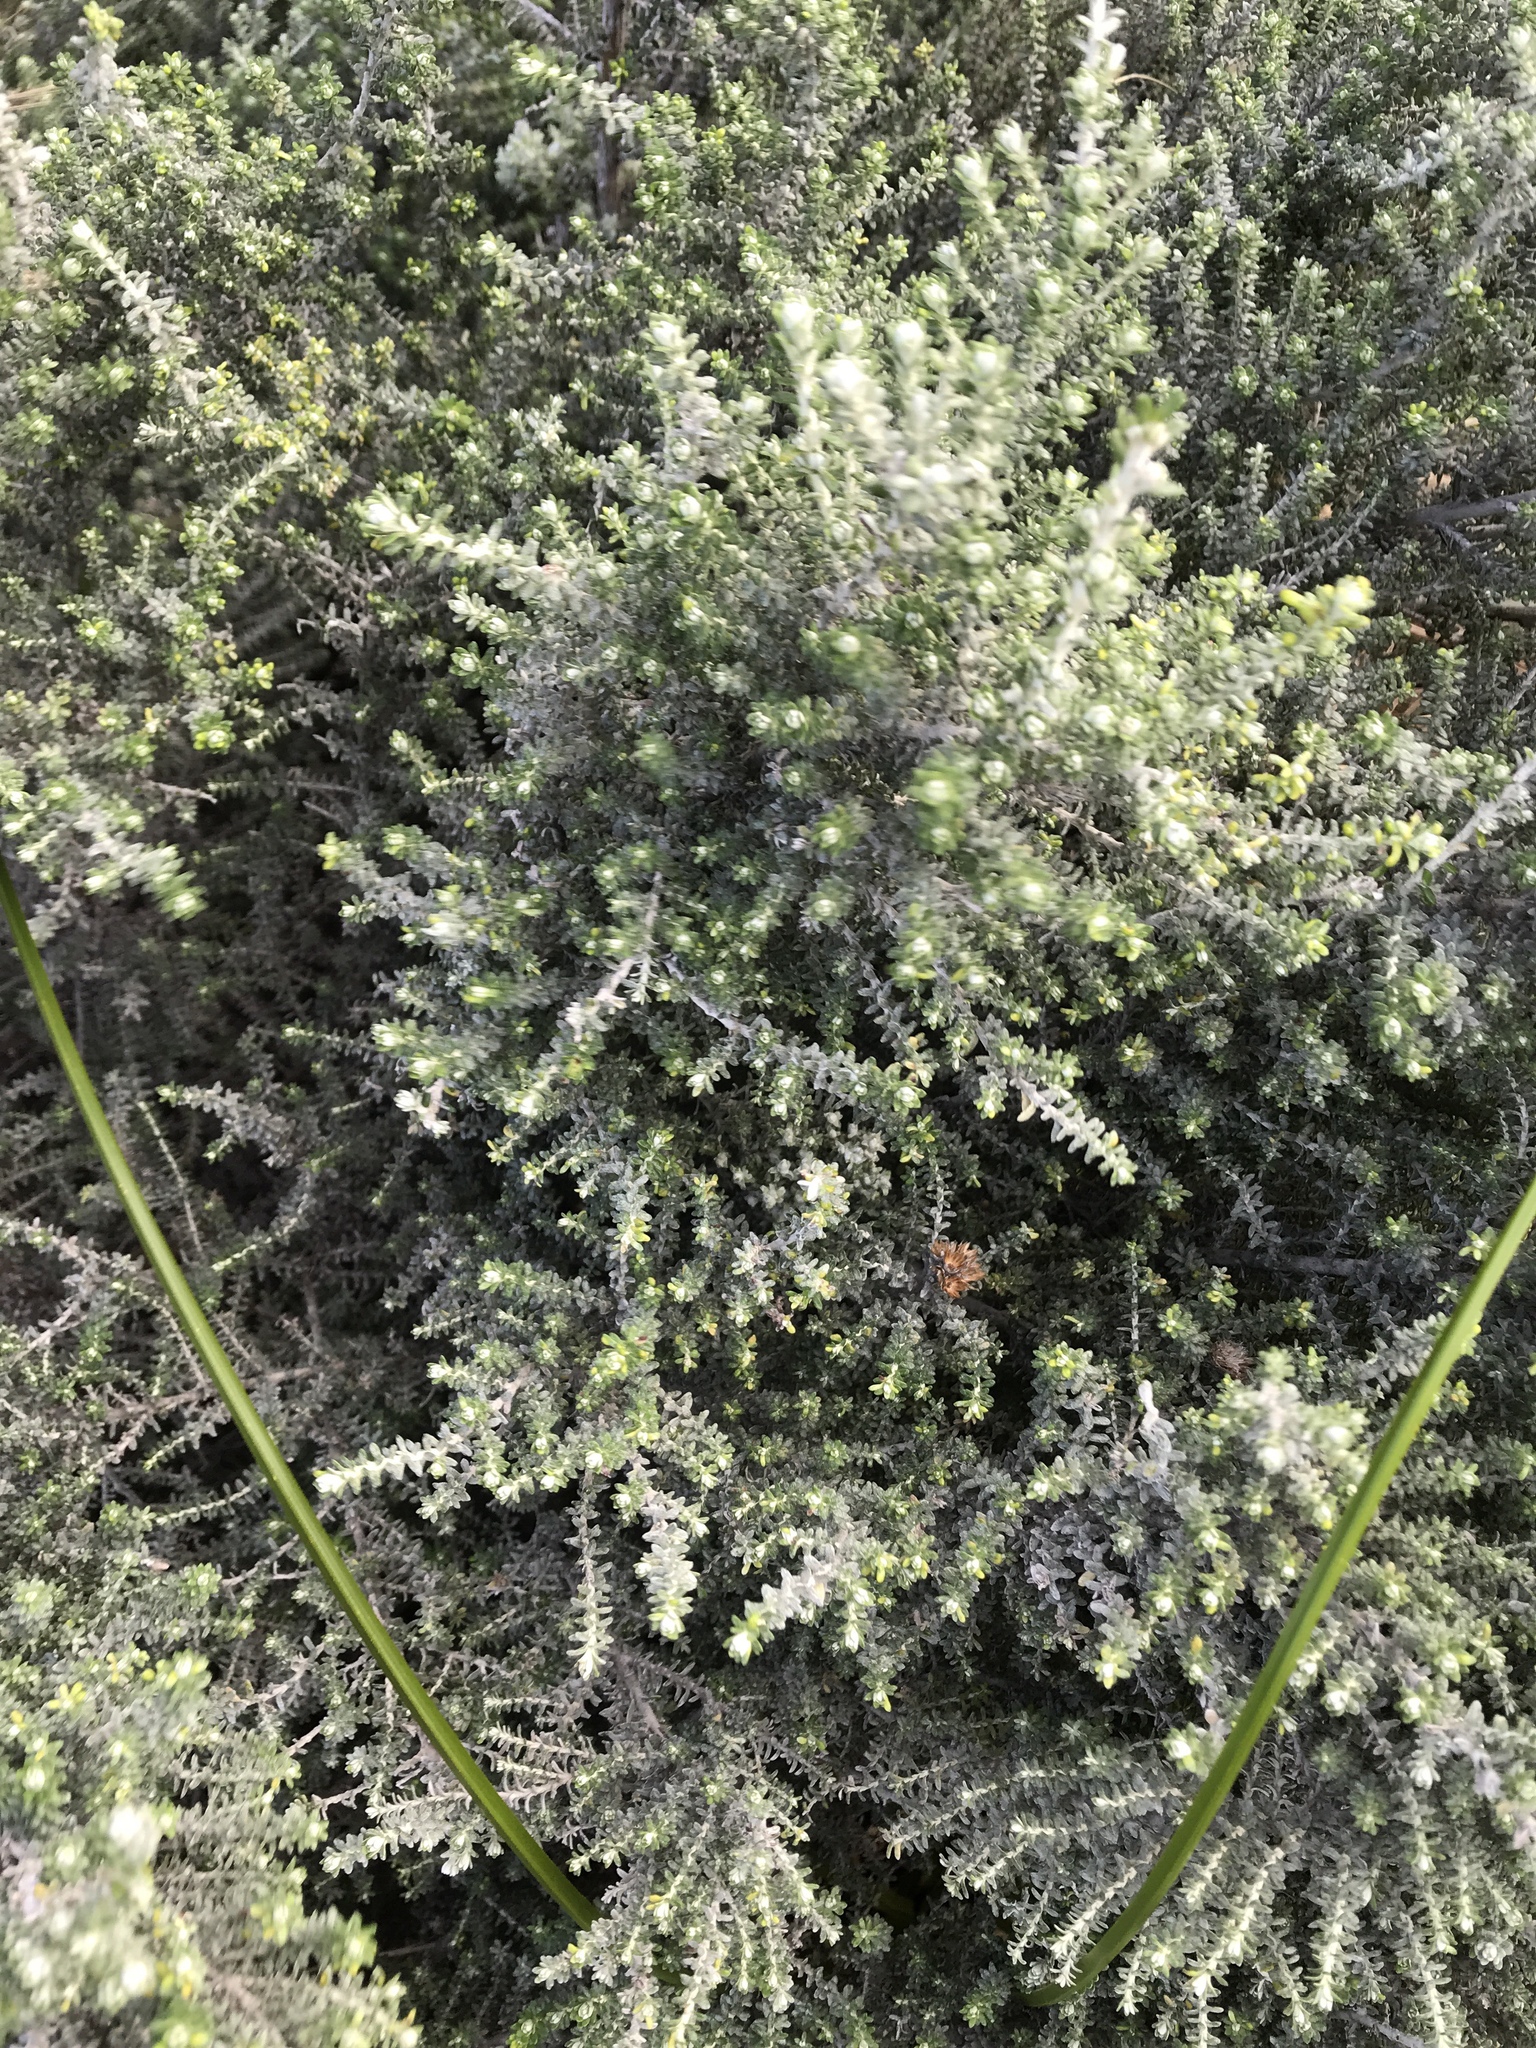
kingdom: Plantae
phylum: Tracheophyta
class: Magnoliopsida
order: Asterales
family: Asteraceae
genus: Ozothamnus
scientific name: Ozothamnus leptophyllus
